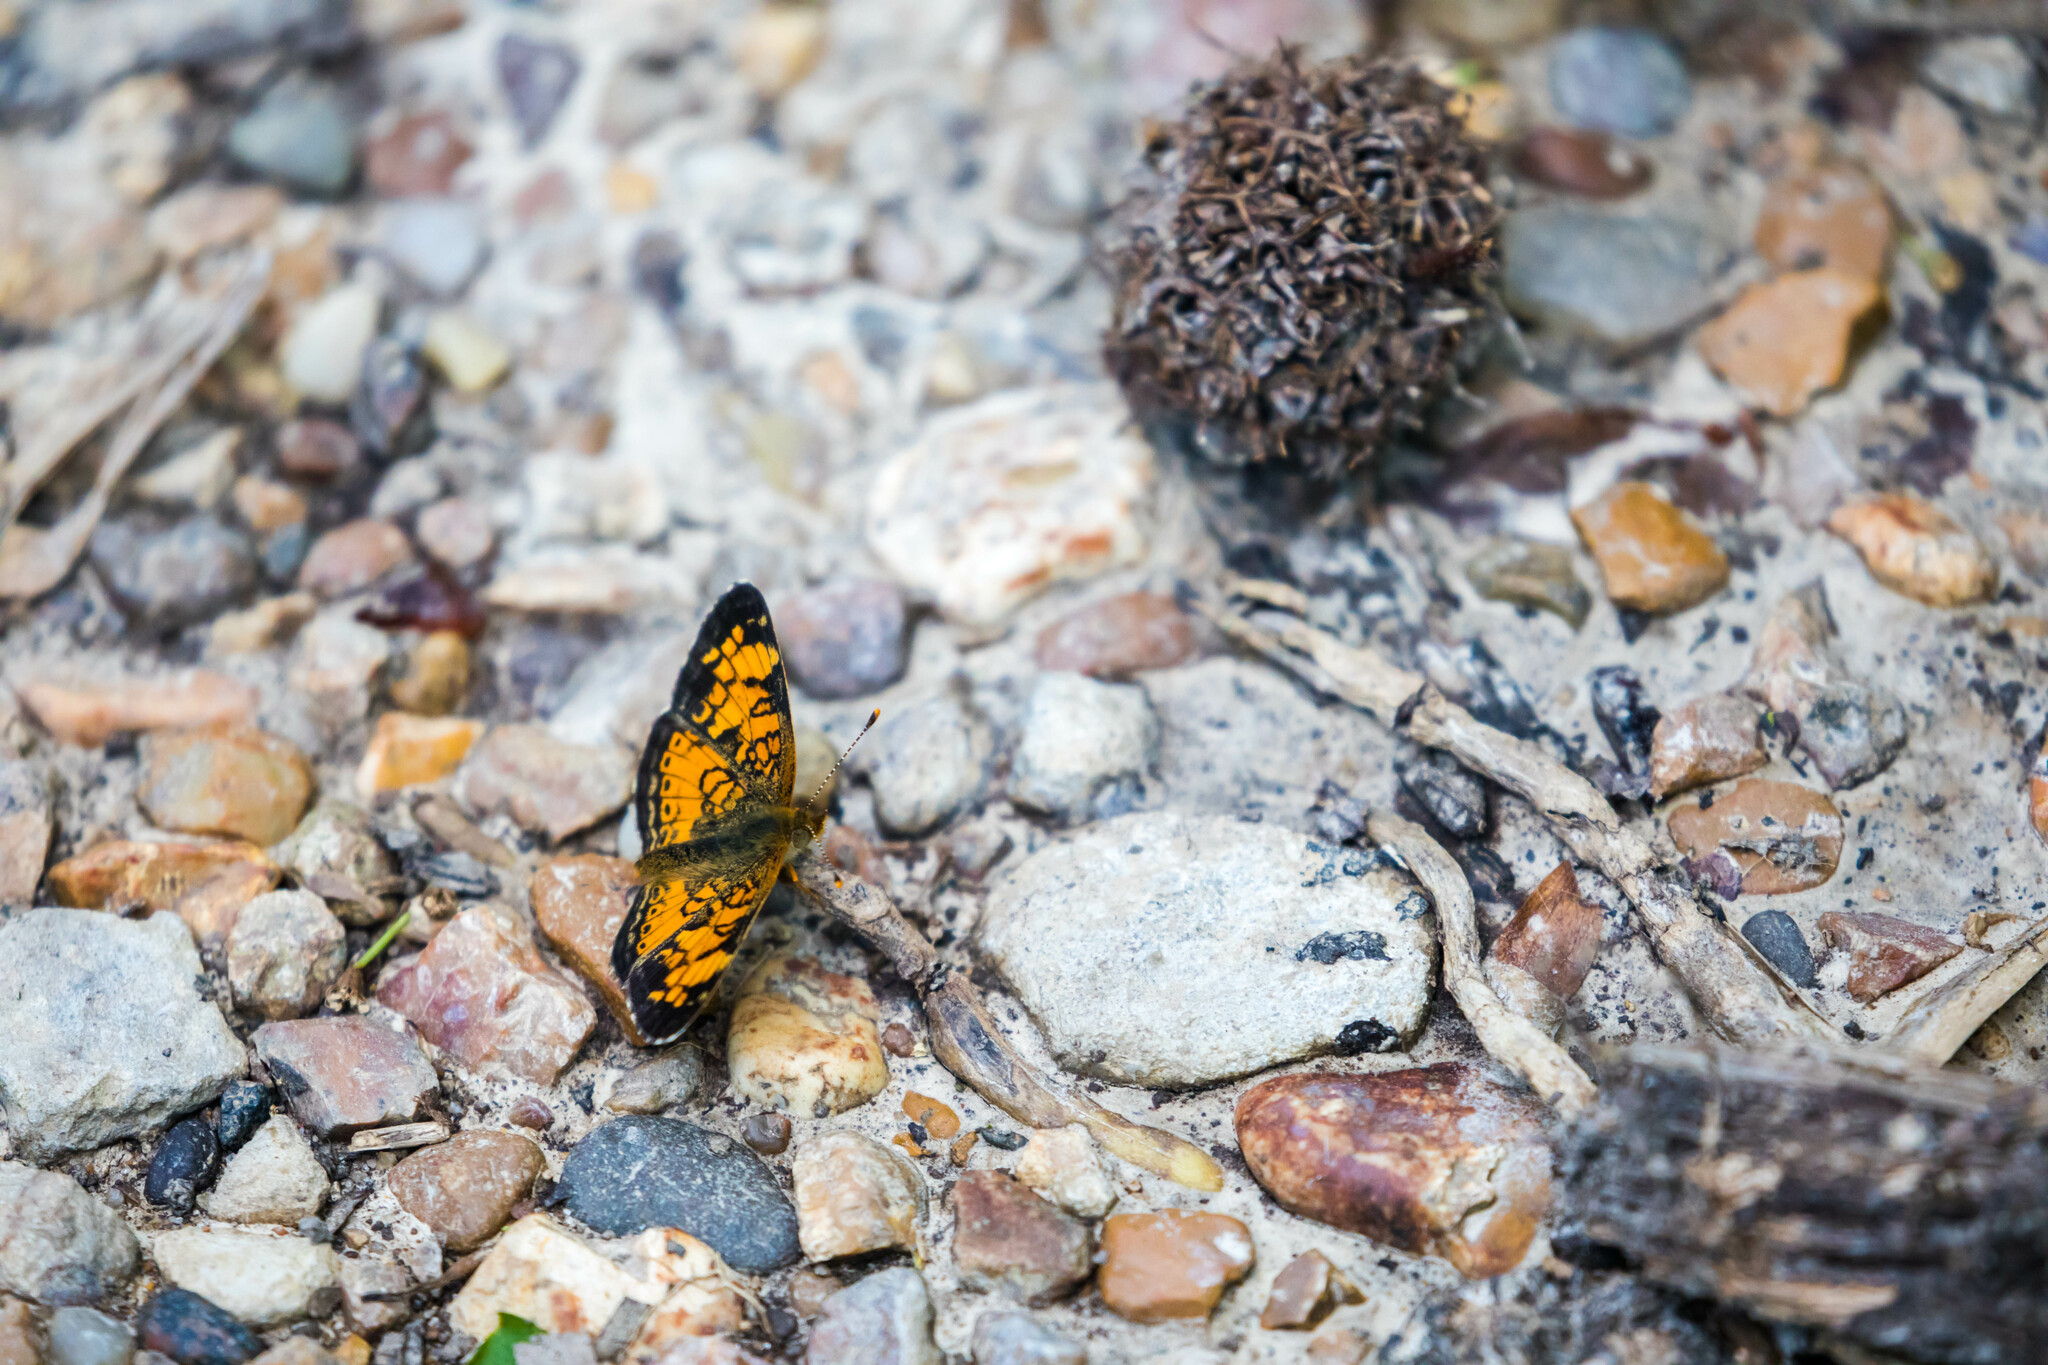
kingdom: Animalia
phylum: Arthropoda
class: Insecta
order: Lepidoptera
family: Nymphalidae
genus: Phyciodes
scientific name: Phyciodes tharos
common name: Pearl crescent
